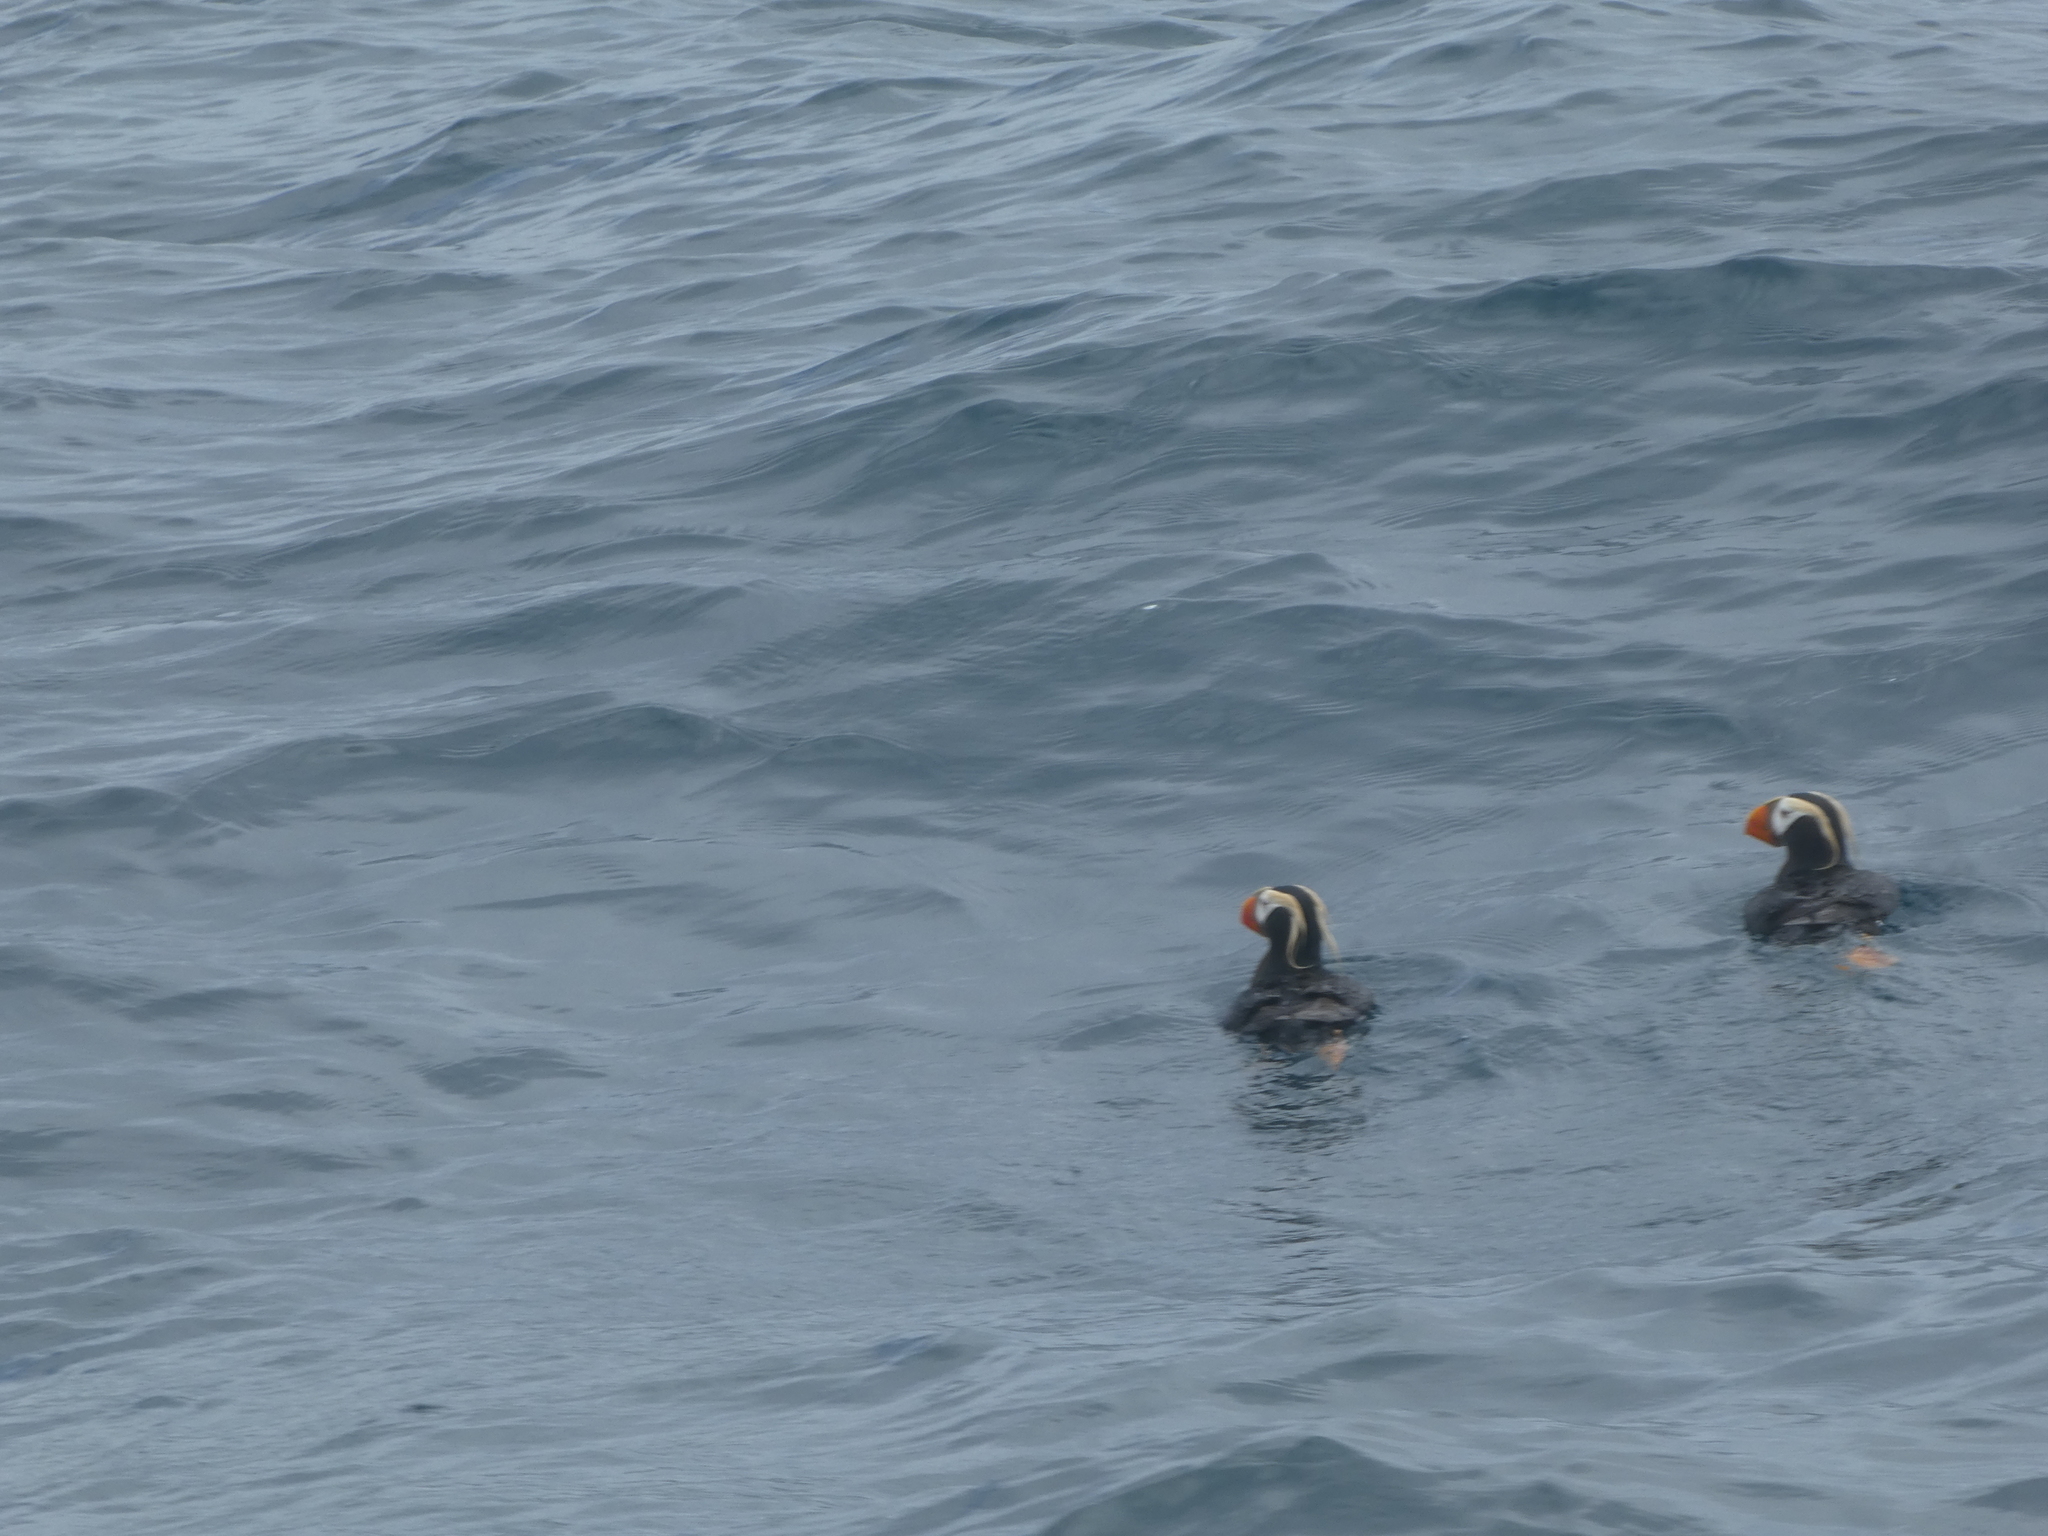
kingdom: Animalia
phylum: Chordata
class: Aves
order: Charadriiformes
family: Alcidae
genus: Fratercula
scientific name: Fratercula cirrhata
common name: Tufted puffin
